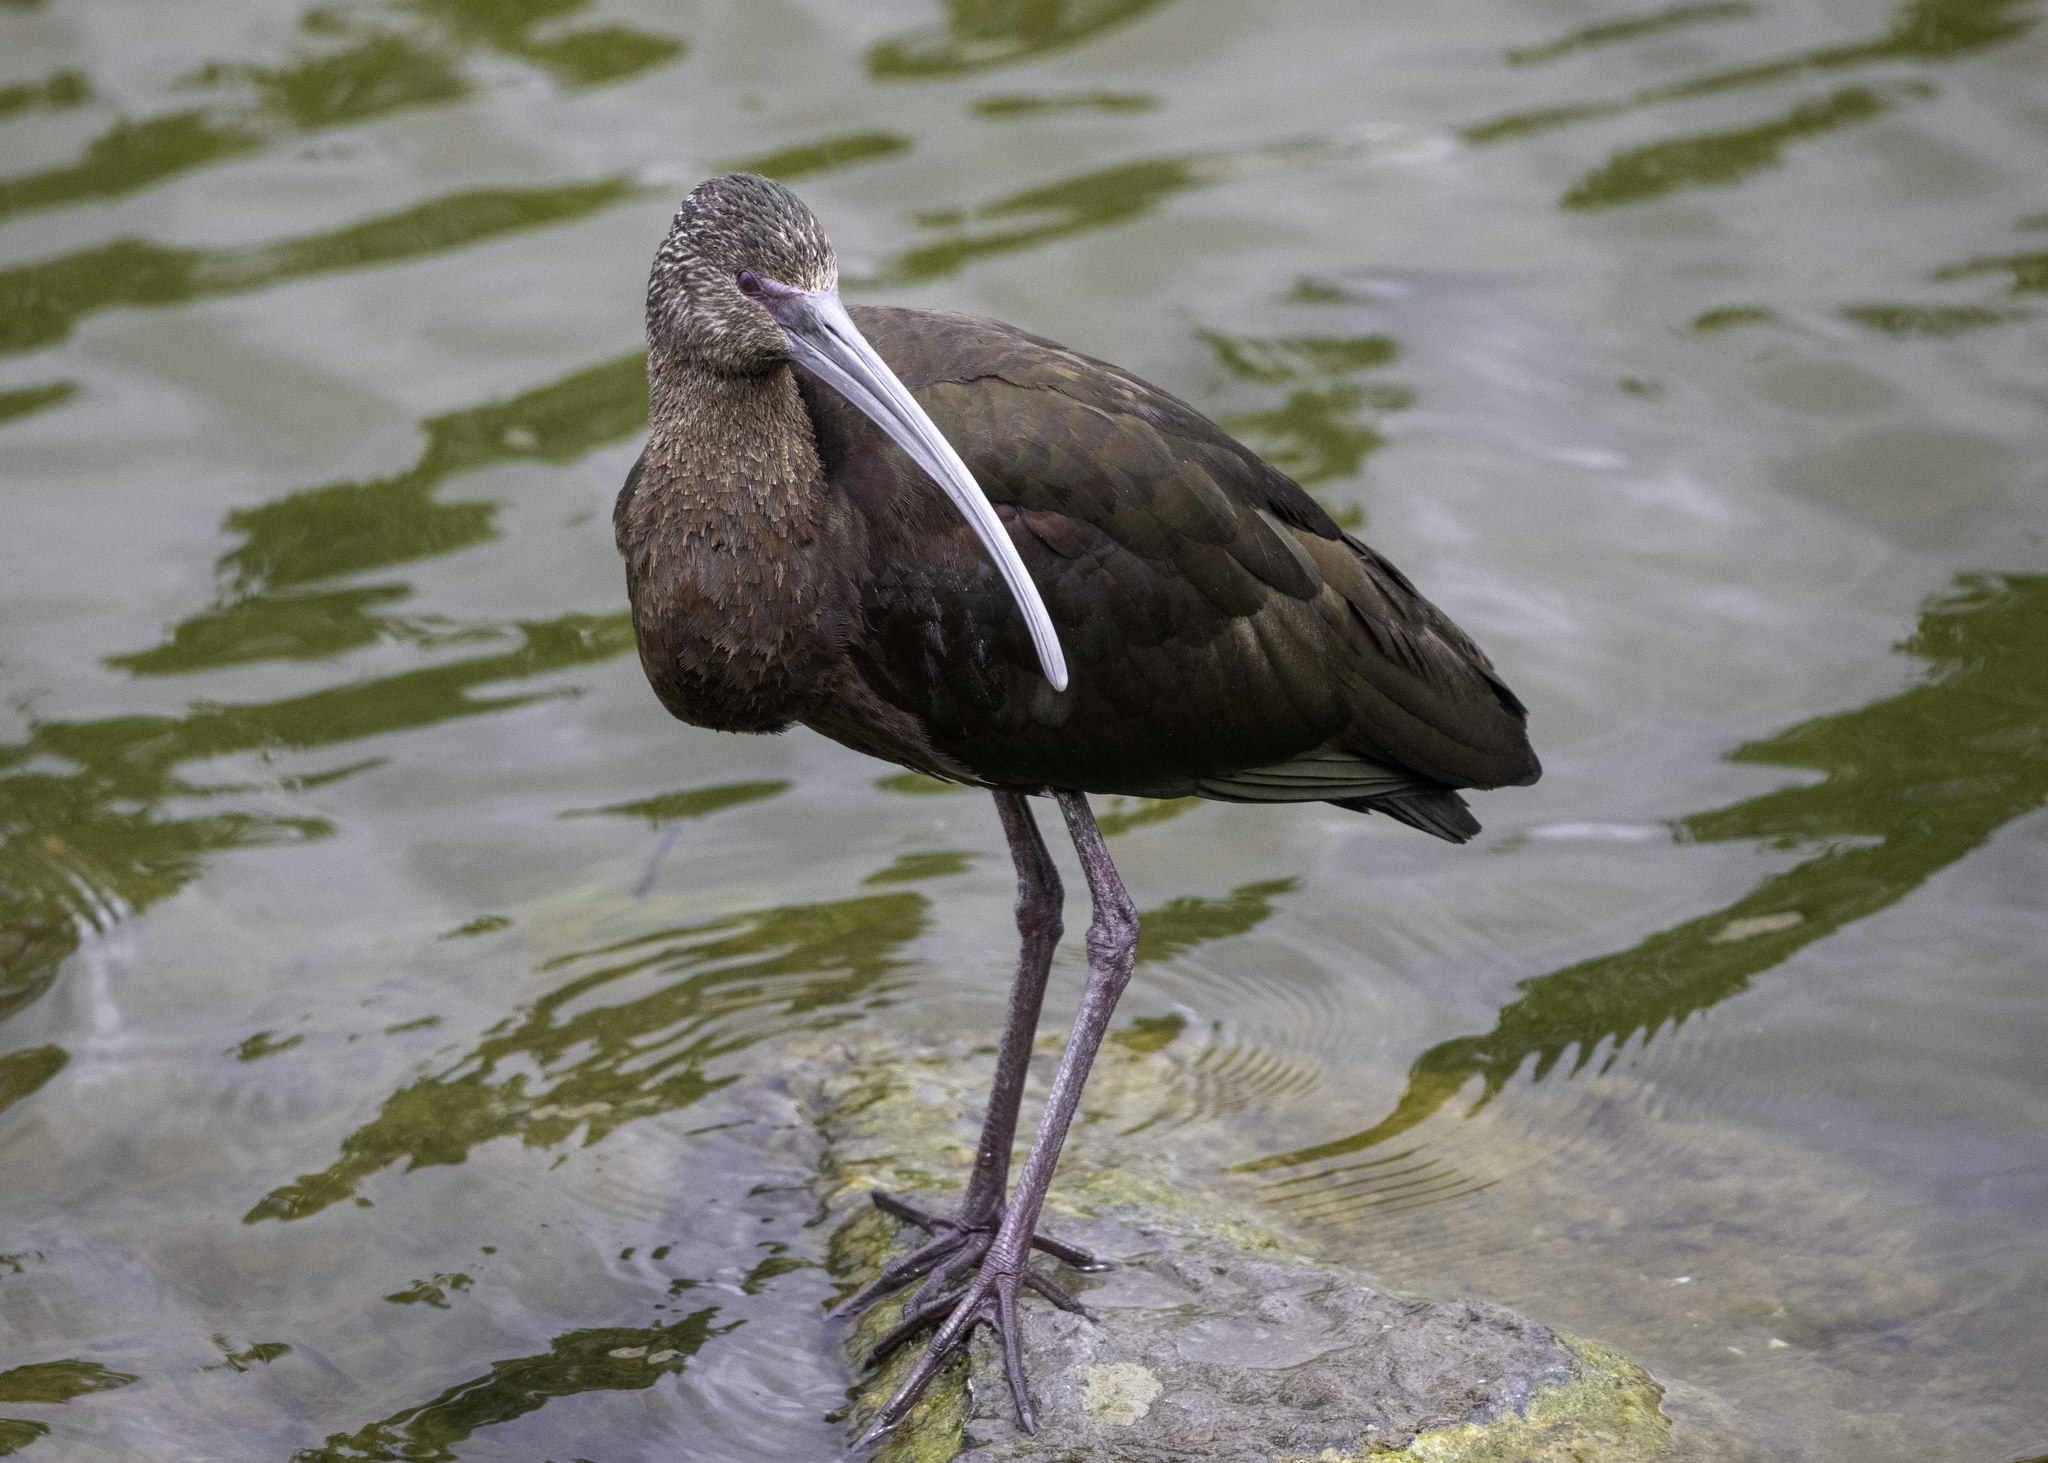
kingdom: Animalia
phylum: Chordata
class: Aves
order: Pelecaniformes
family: Threskiornithidae
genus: Plegadis
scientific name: Plegadis chihi
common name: White-faced ibis
